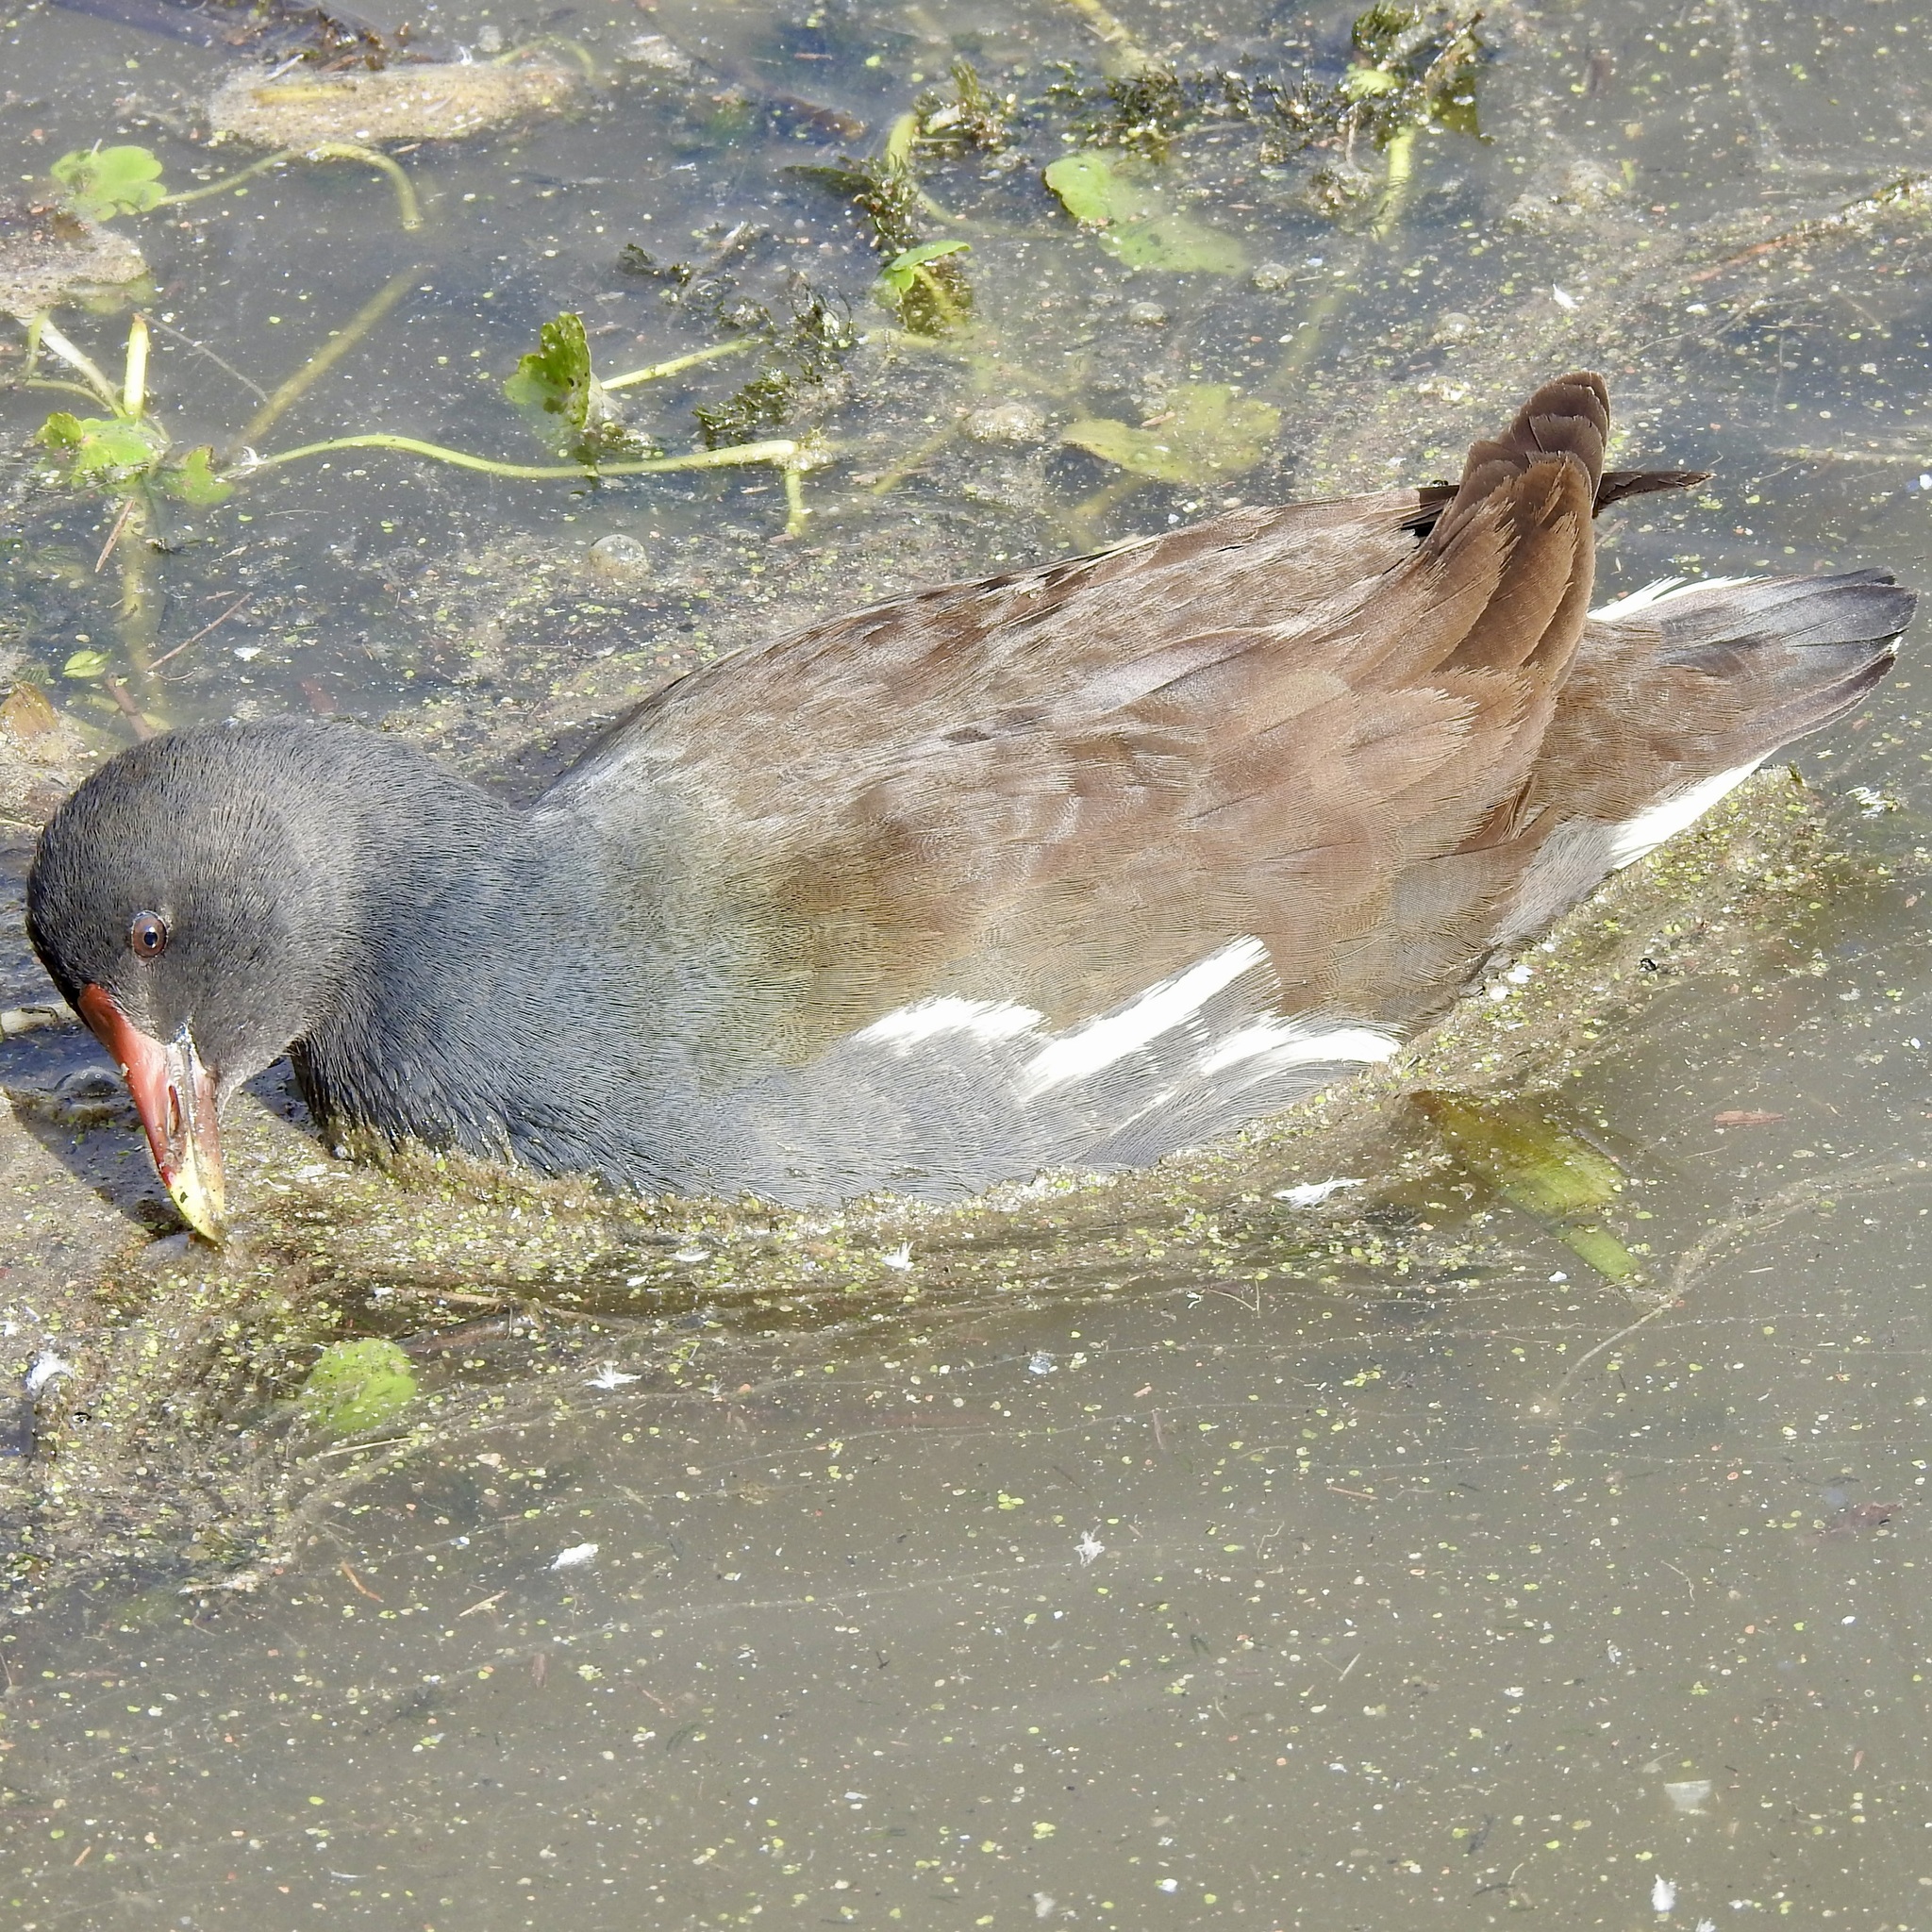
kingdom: Animalia
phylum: Chordata
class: Aves
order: Gruiformes
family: Rallidae
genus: Gallinula
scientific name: Gallinula chloropus
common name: Common moorhen
